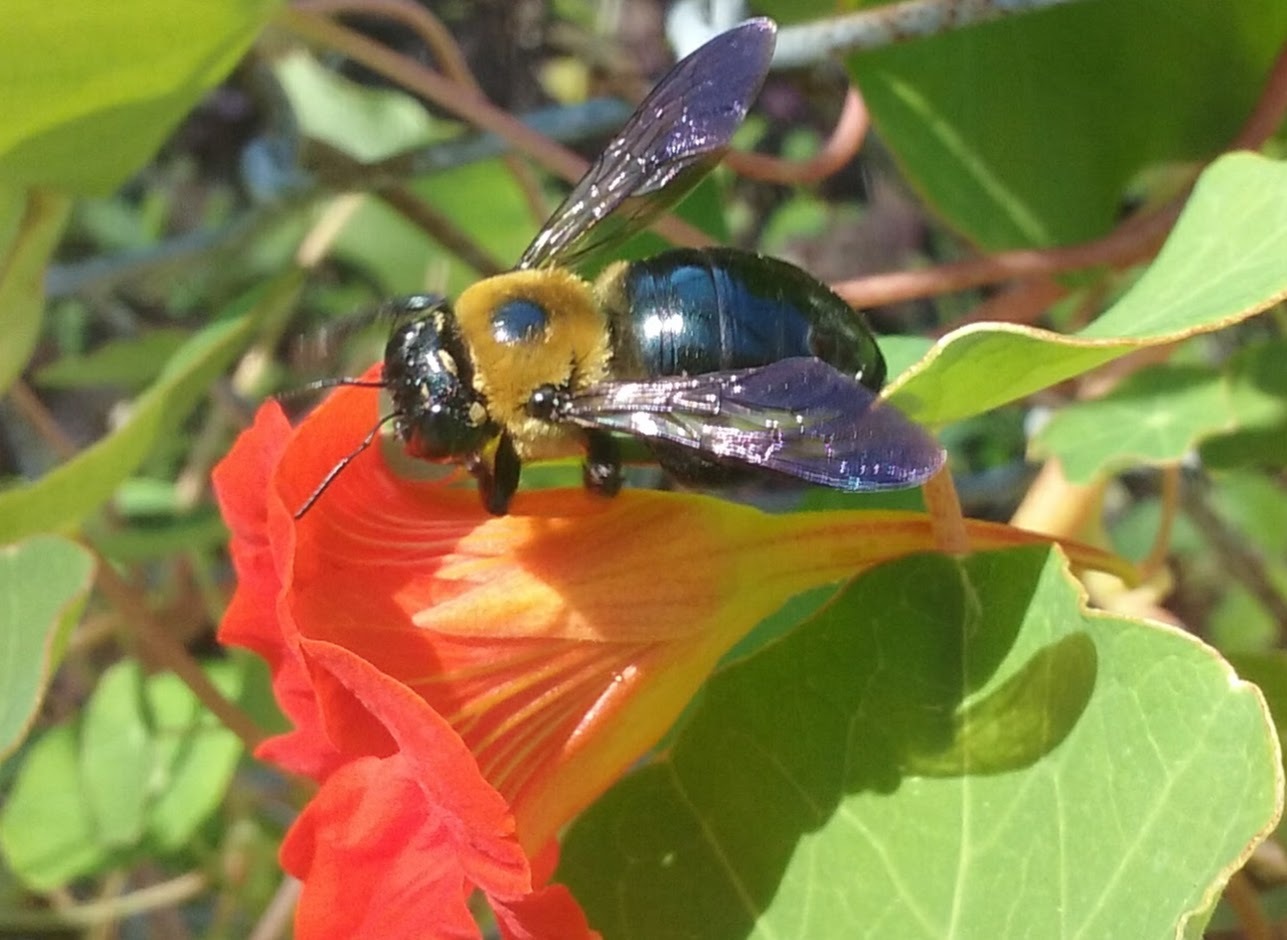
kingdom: Animalia
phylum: Arthropoda
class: Insecta
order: Hymenoptera
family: Apidae
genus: Xylocopa
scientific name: Xylocopa virginica
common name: Carpenter bee
